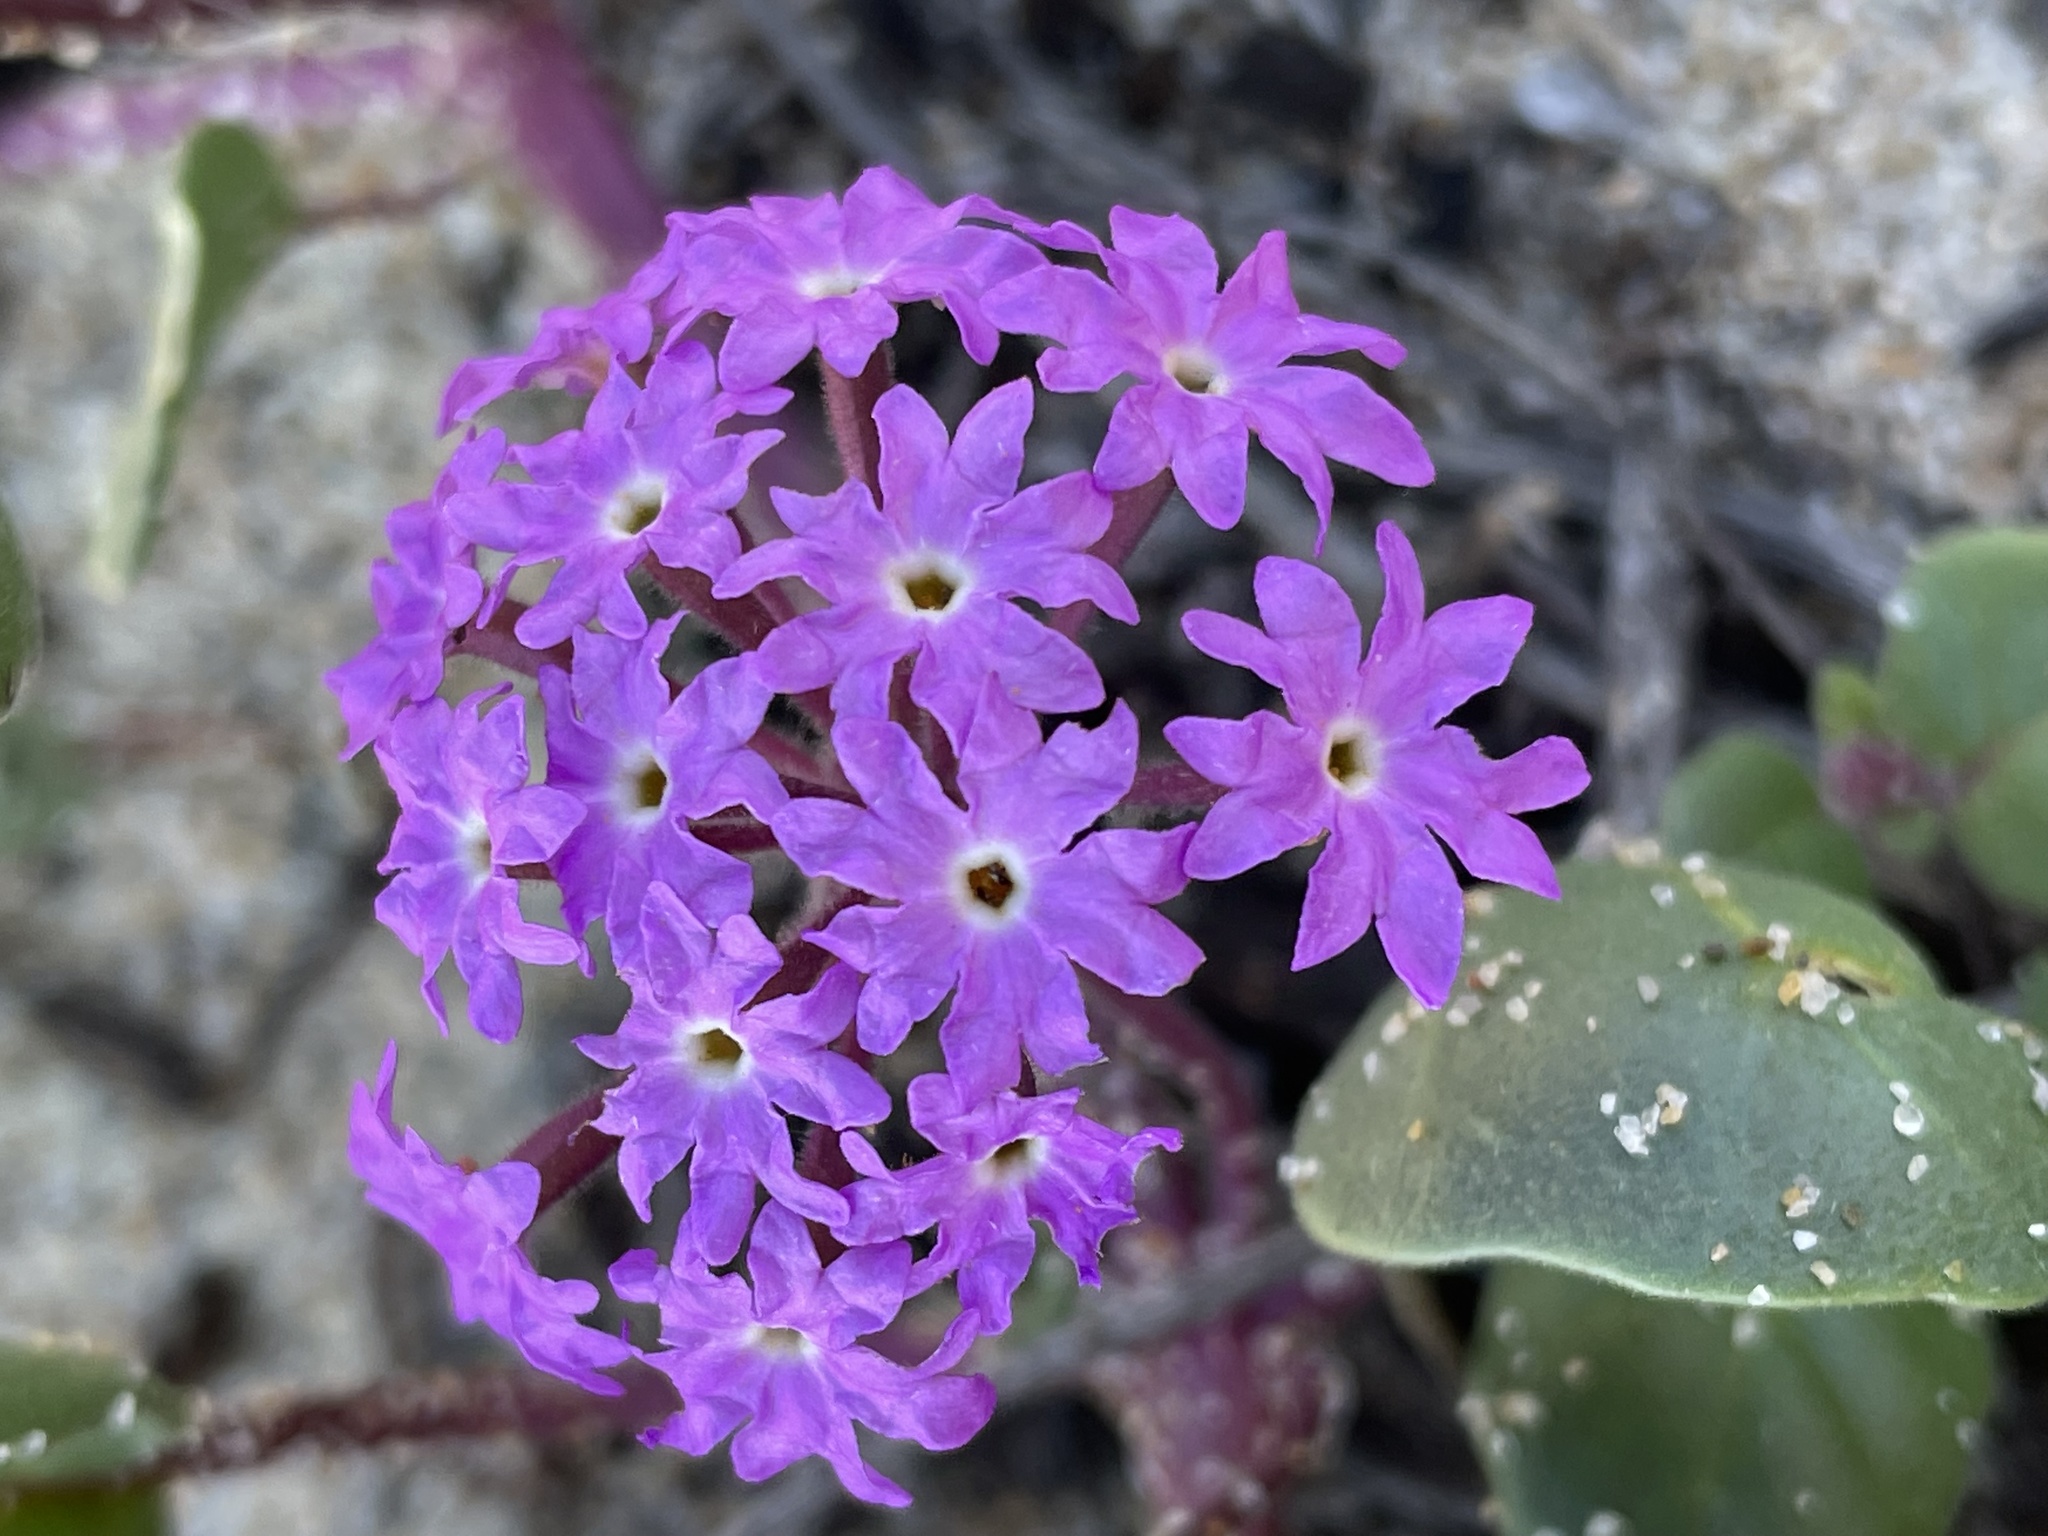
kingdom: Plantae
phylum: Tracheophyta
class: Magnoliopsida
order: Caryophyllales
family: Nyctaginaceae
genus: Abronia
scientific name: Abronia umbellata
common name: Sand-verbena
